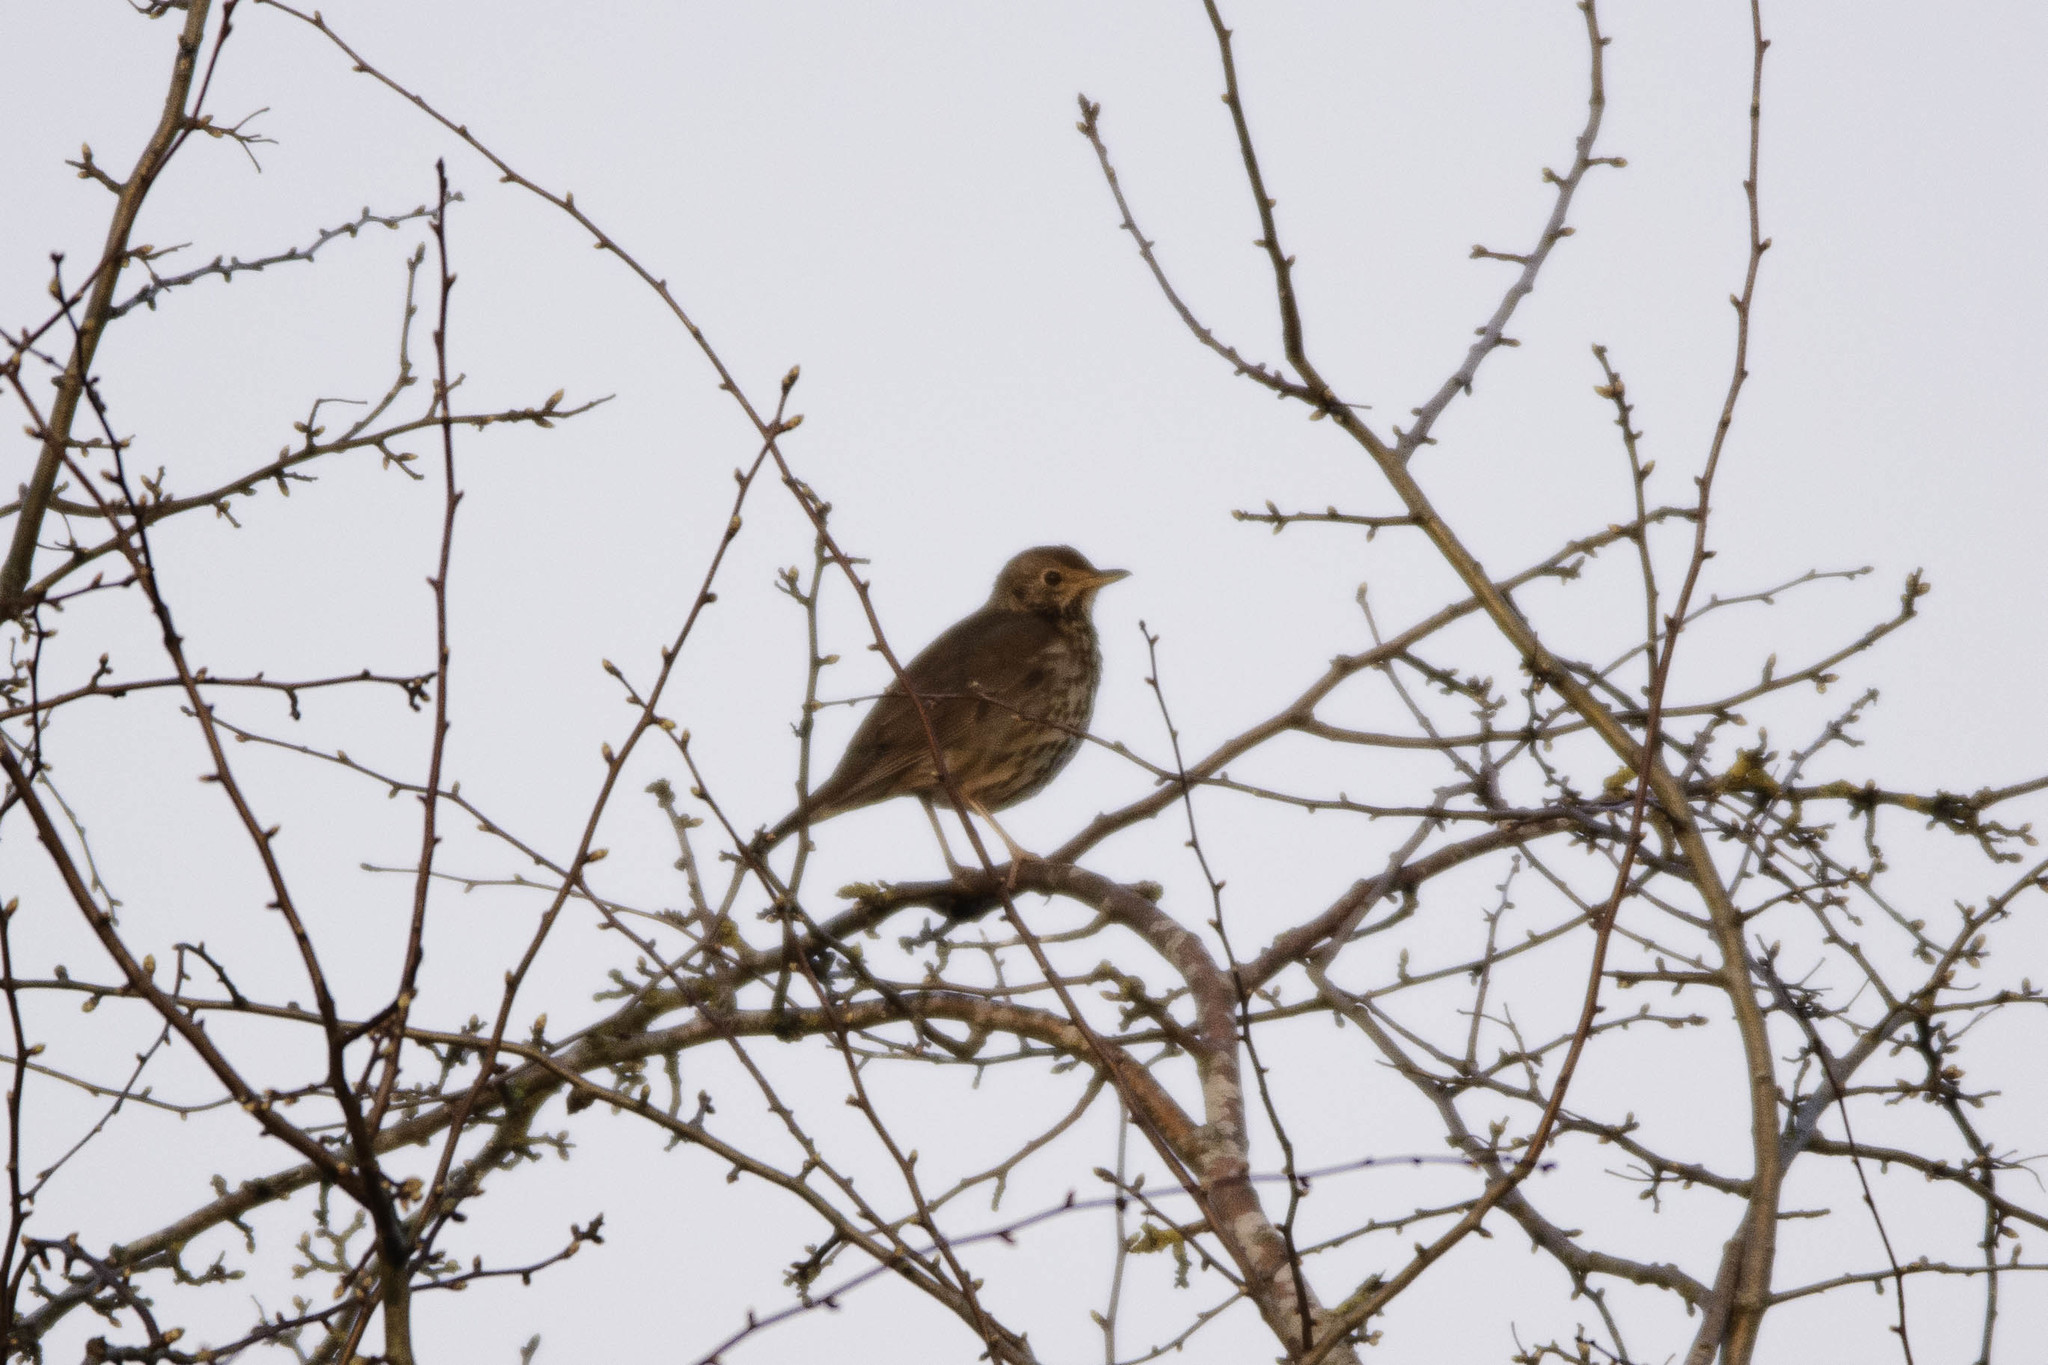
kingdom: Animalia
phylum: Chordata
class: Aves
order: Passeriformes
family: Turdidae
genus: Turdus
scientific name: Turdus philomelos
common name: Song thrush
